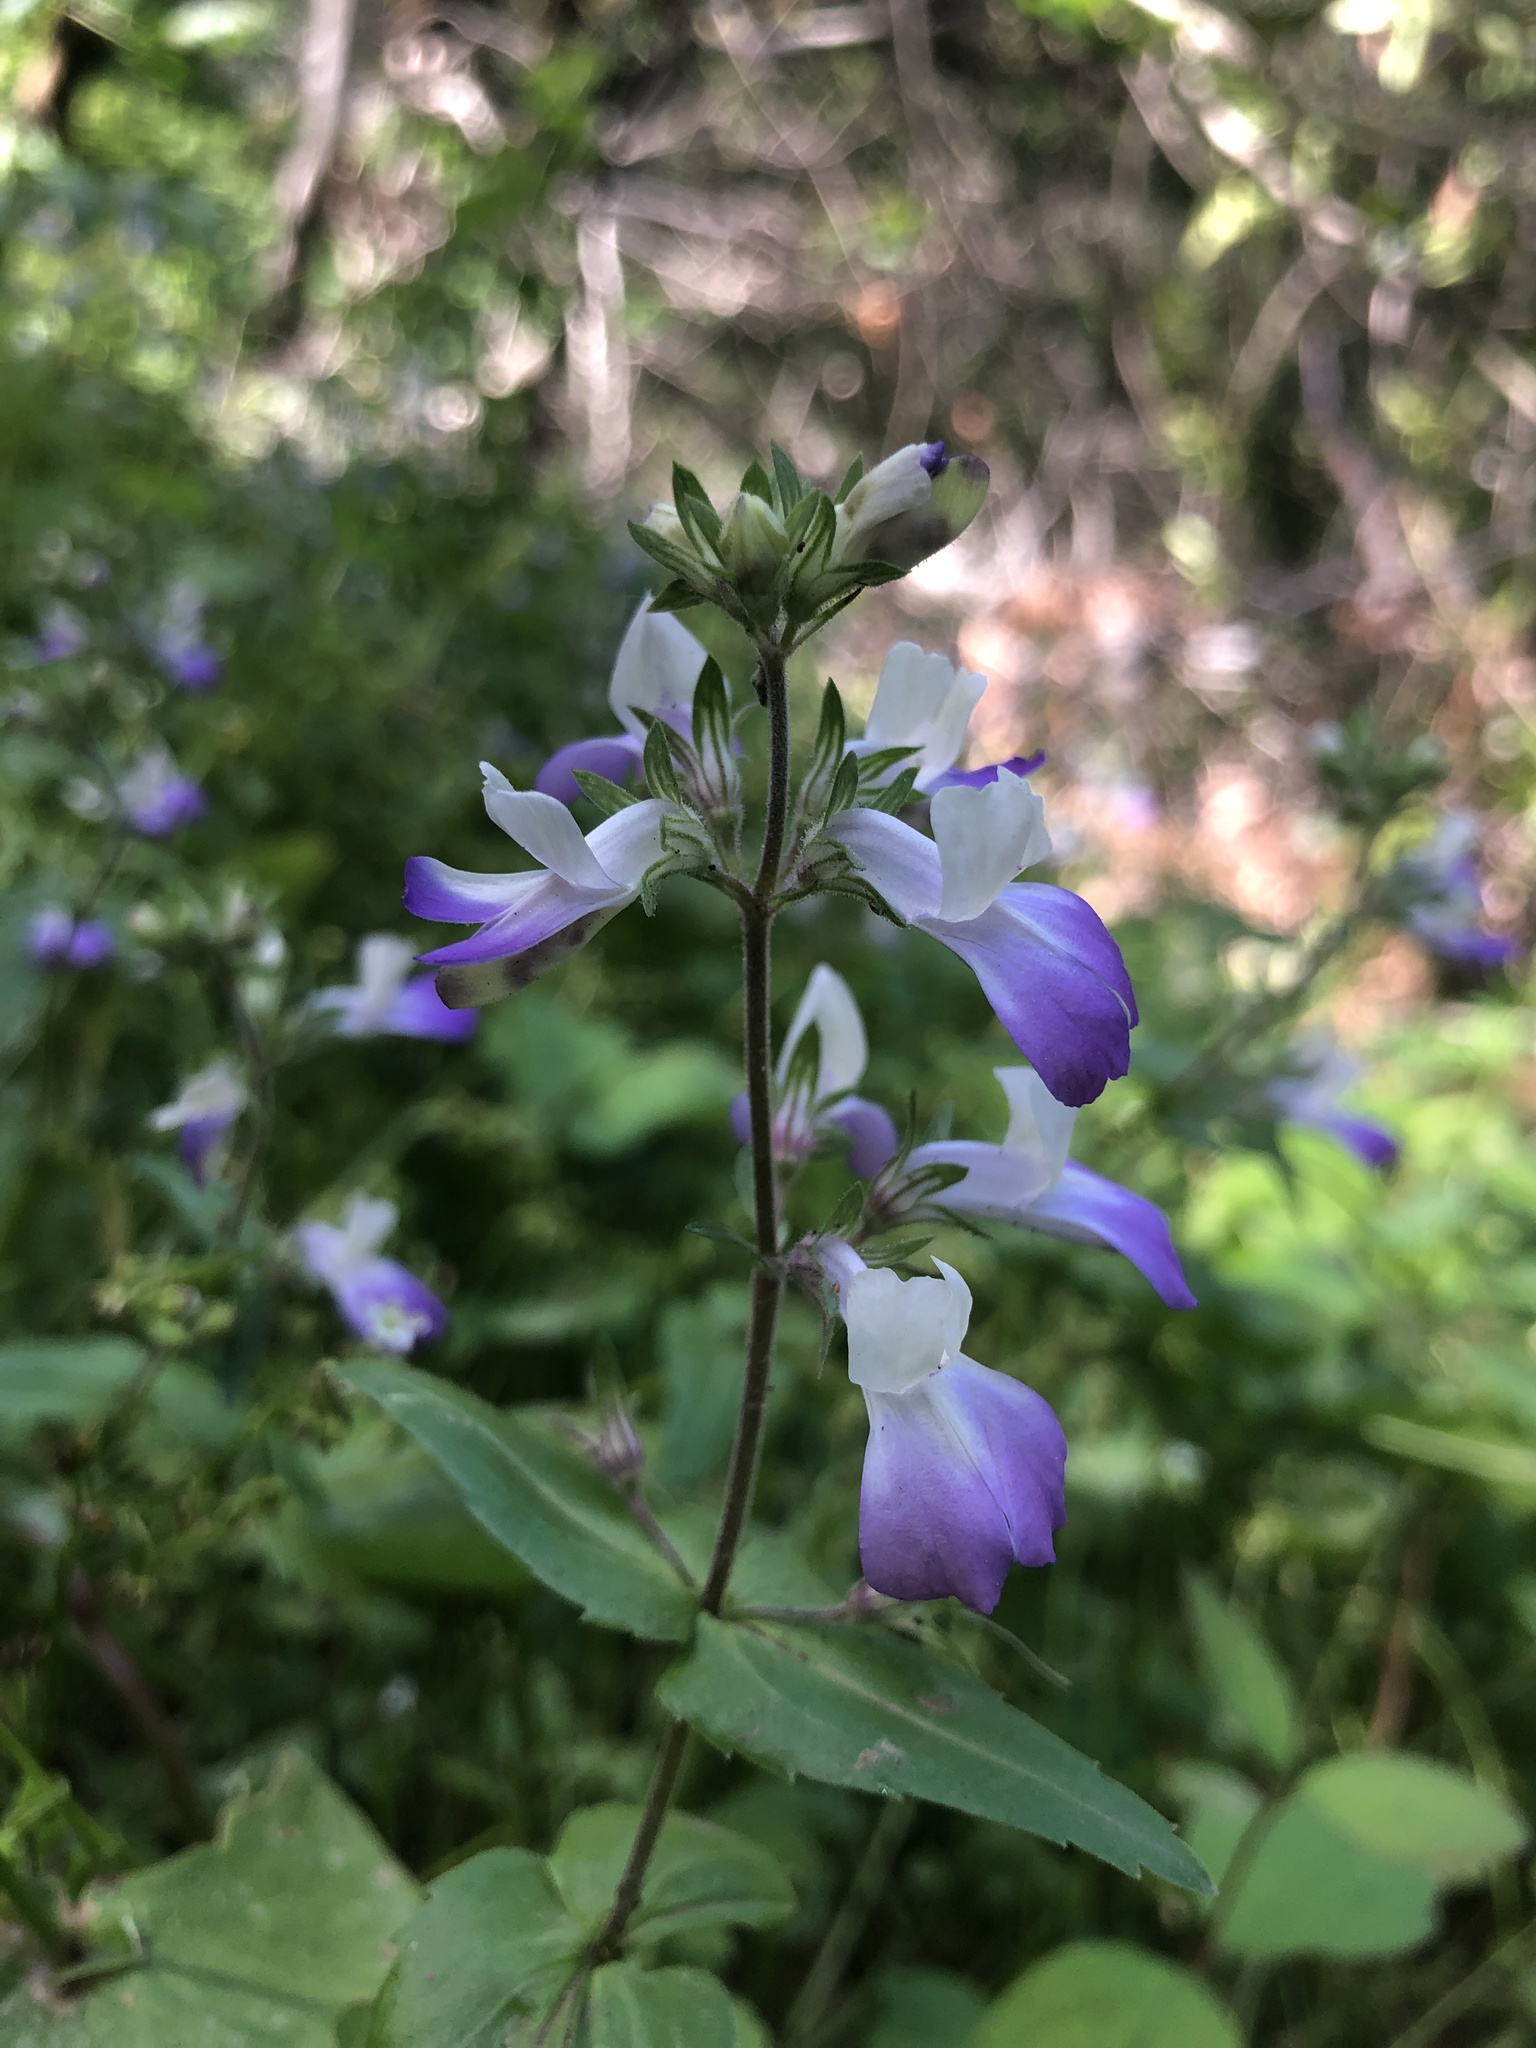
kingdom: Plantae
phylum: Tracheophyta
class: Magnoliopsida
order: Lamiales
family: Plantaginaceae
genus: Collinsia
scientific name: Collinsia multicolor
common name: San francisco collinsia
